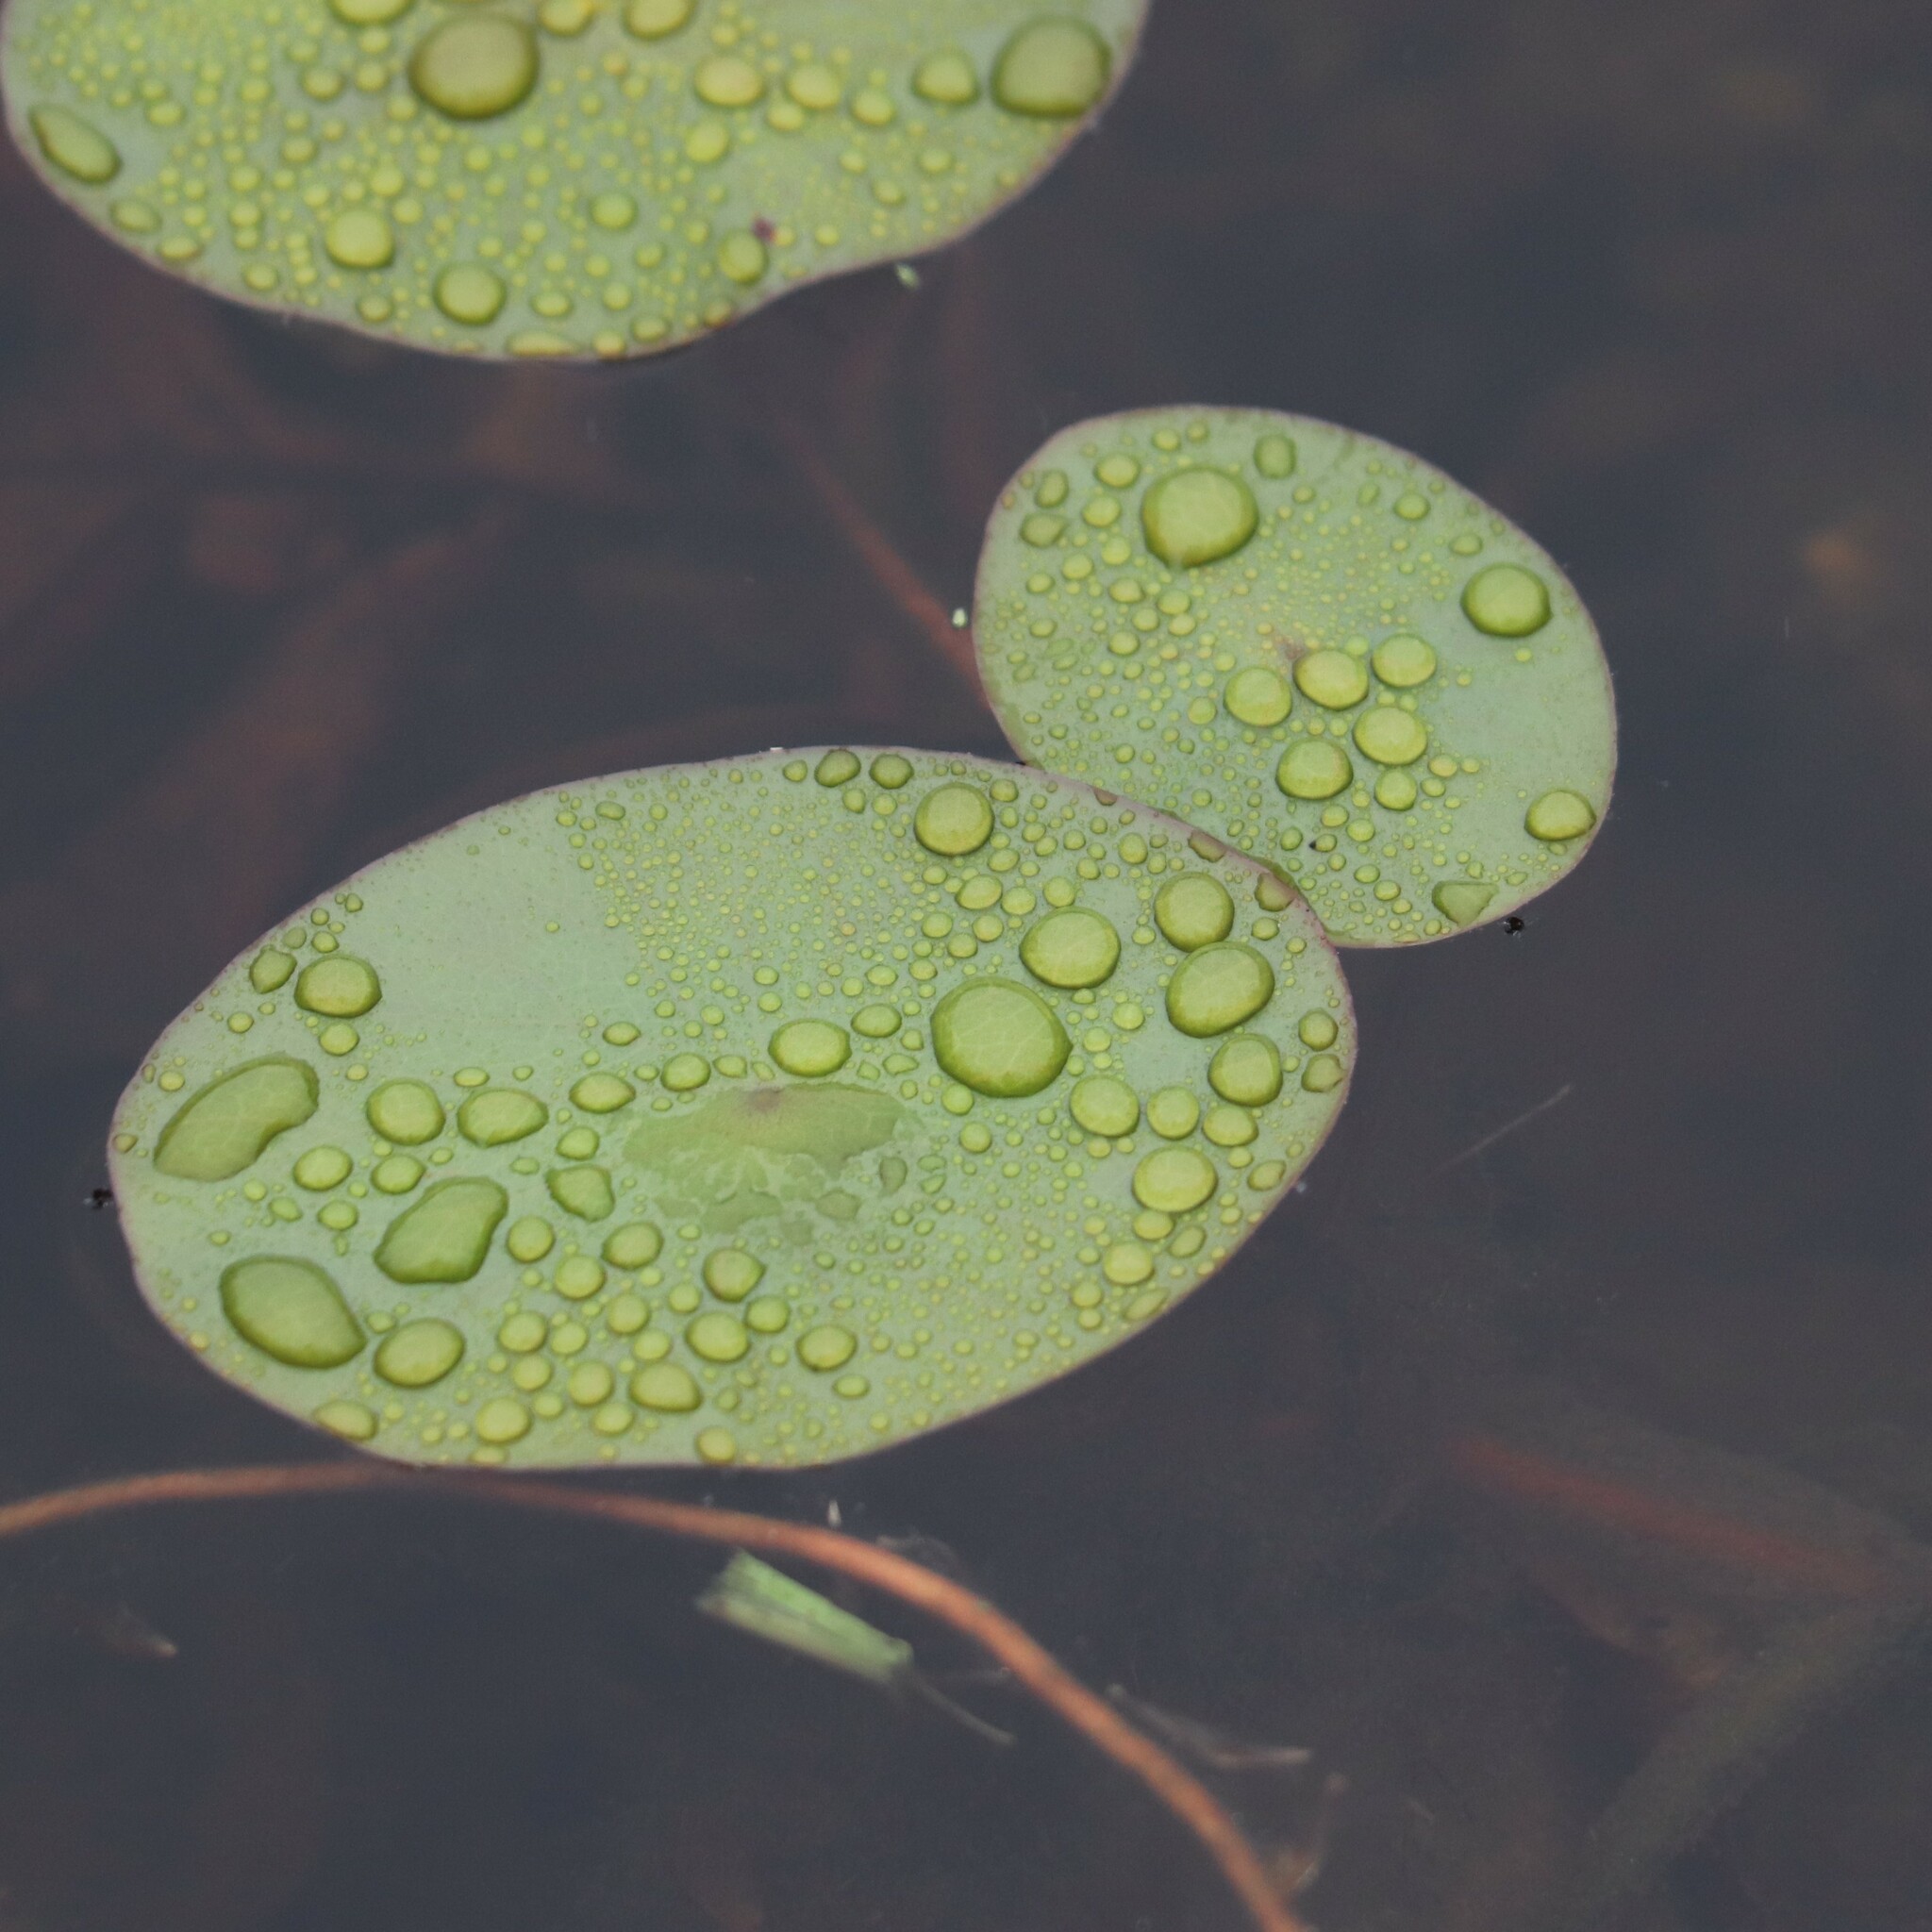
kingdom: Plantae
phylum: Tracheophyta
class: Magnoliopsida
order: Nymphaeales
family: Cabombaceae
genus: Brasenia
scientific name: Brasenia schreberi
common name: Water-shield
